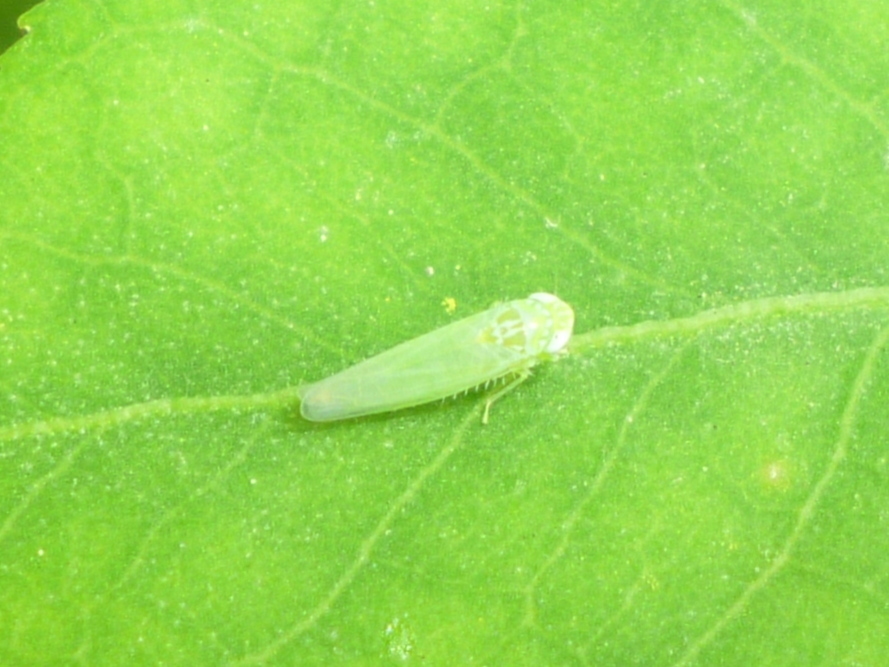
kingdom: Animalia
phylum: Arthropoda
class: Insecta
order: Hemiptera
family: Cicadellidae
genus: Empoasca
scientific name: Empoasca fabae
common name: Potato leafhopper
